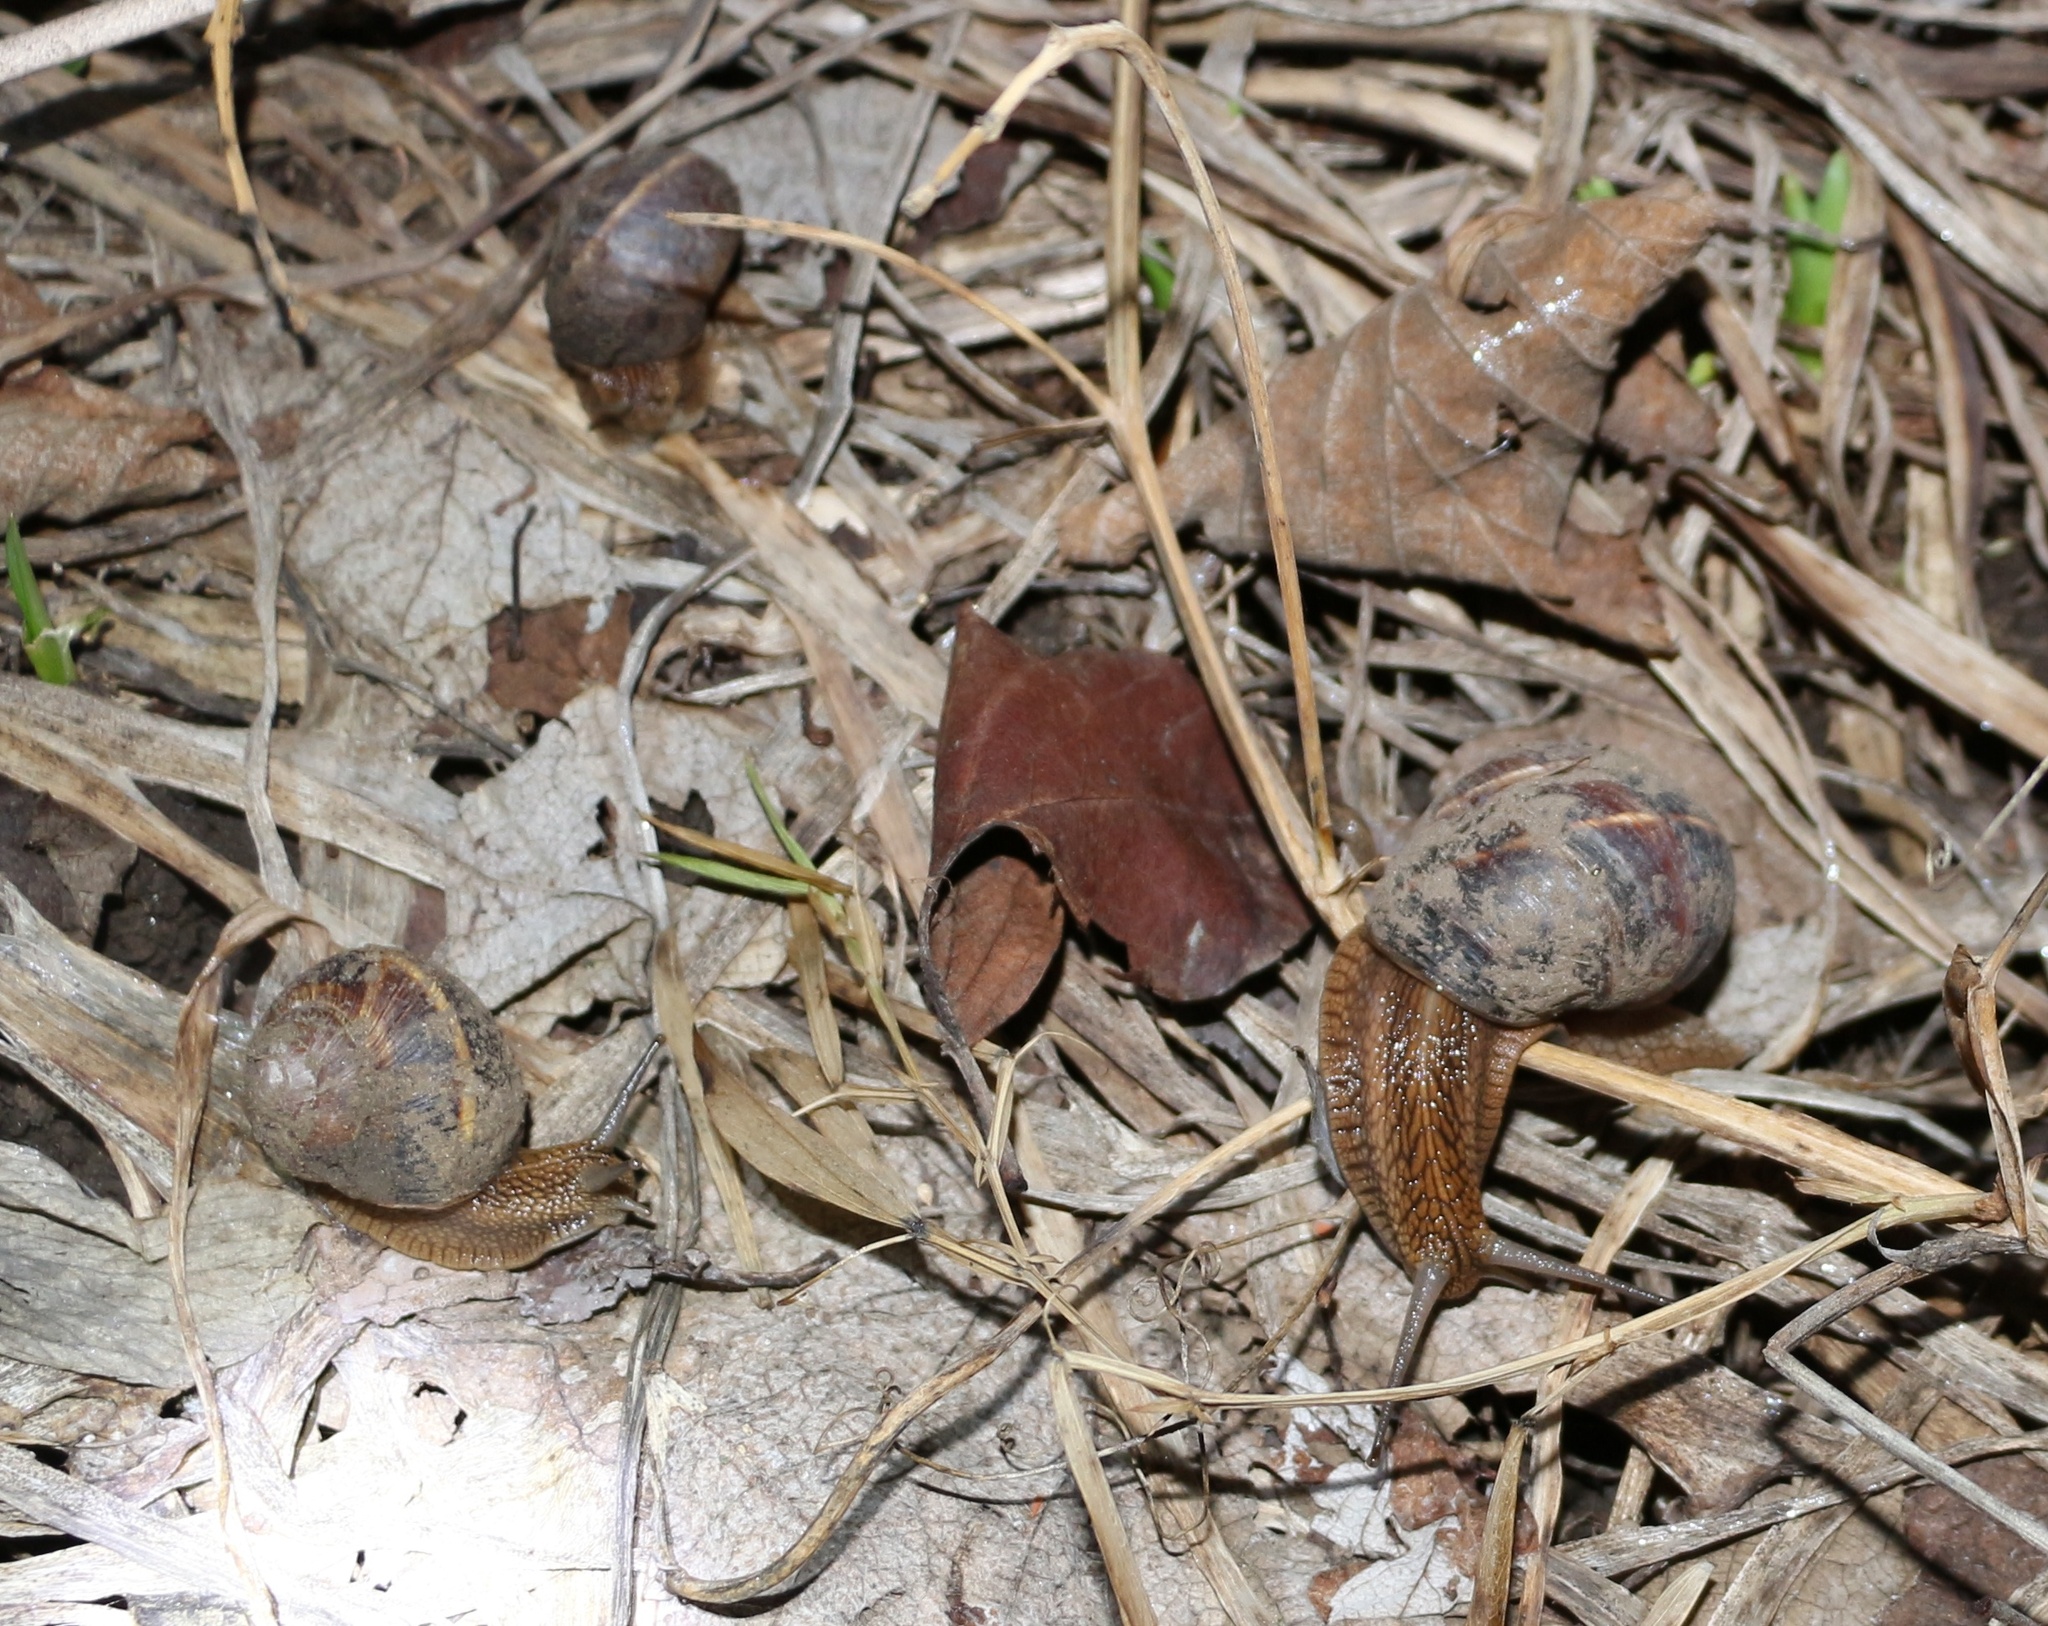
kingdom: Animalia
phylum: Mollusca
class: Gastropoda
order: Stylommatophora
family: Helicidae
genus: Helix
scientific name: Helix lucorum
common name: Turkish snail
